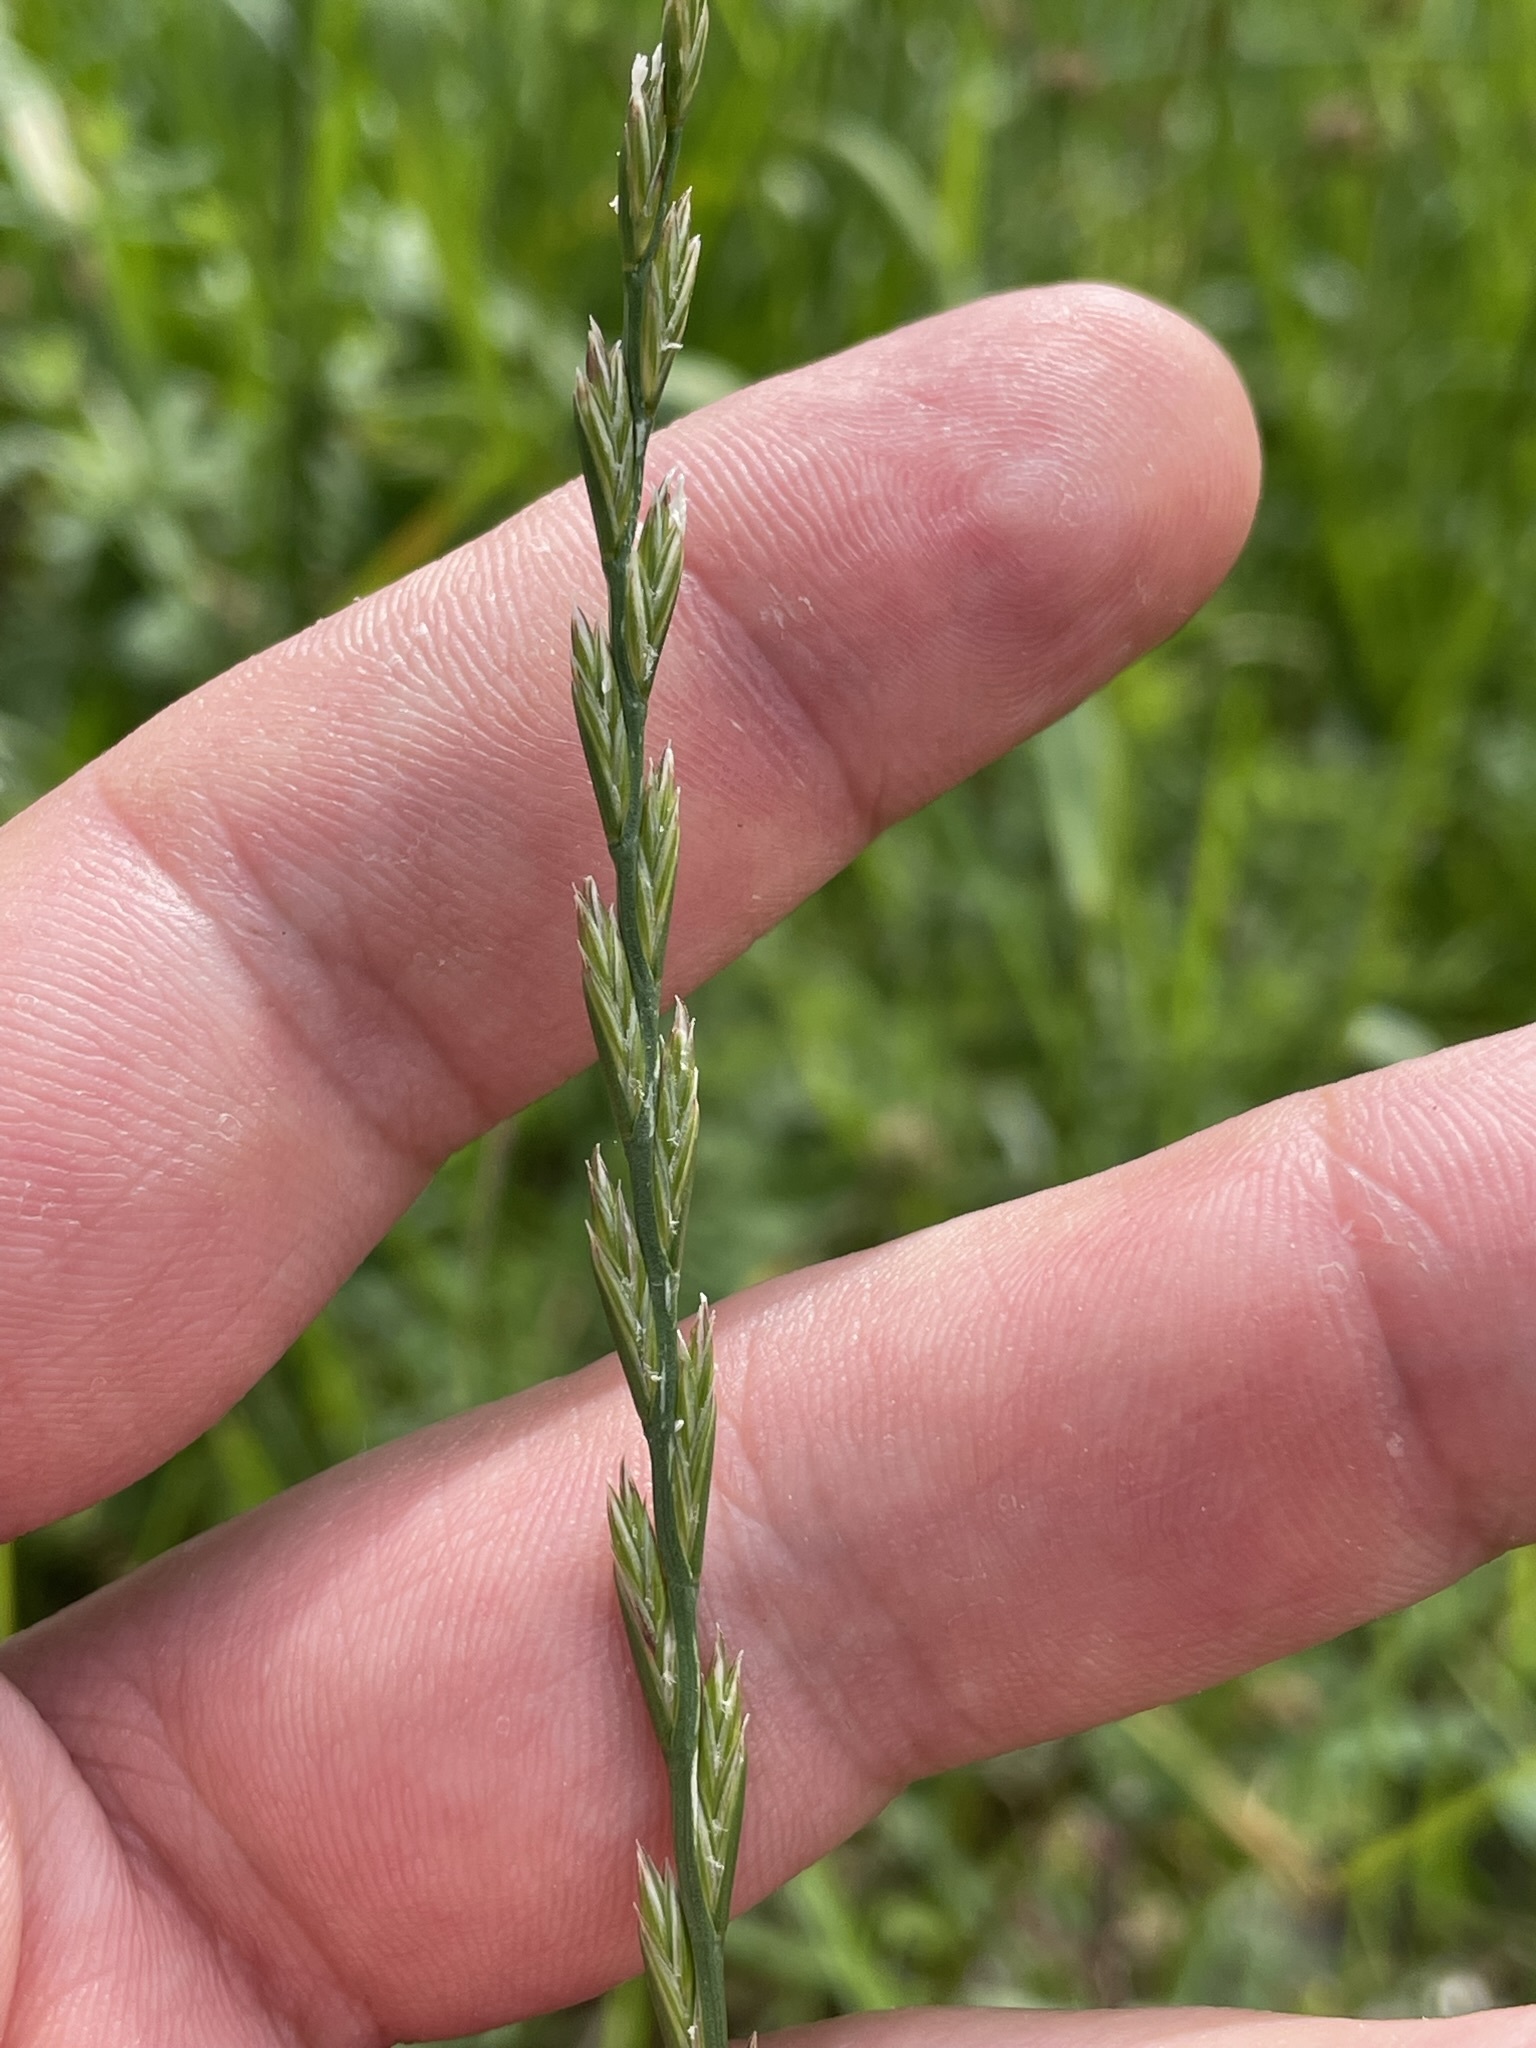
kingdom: Plantae
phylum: Tracheophyta
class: Liliopsida
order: Poales
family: Poaceae
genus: Lolium
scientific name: Lolium perenne
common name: Perennial ryegrass
